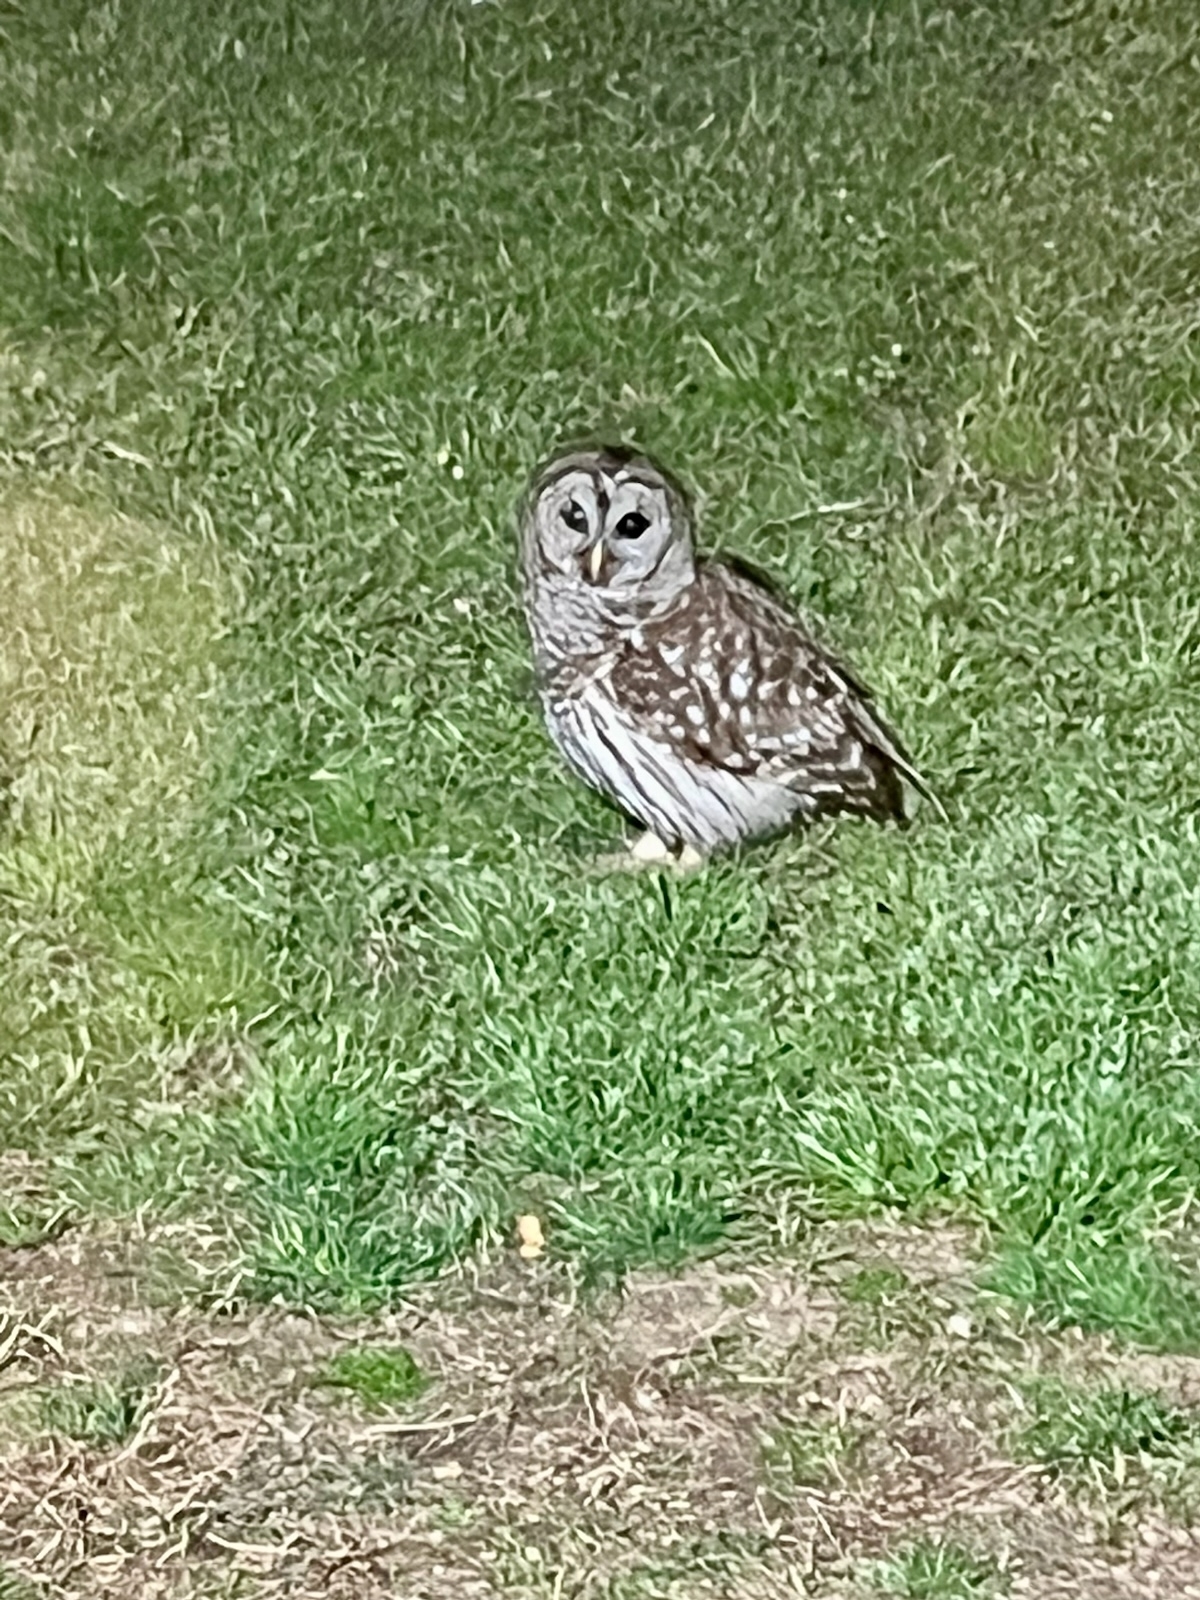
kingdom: Animalia
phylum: Chordata
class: Aves
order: Strigiformes
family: Strigidae
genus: Strix
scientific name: Strix varia
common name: Barred owl
